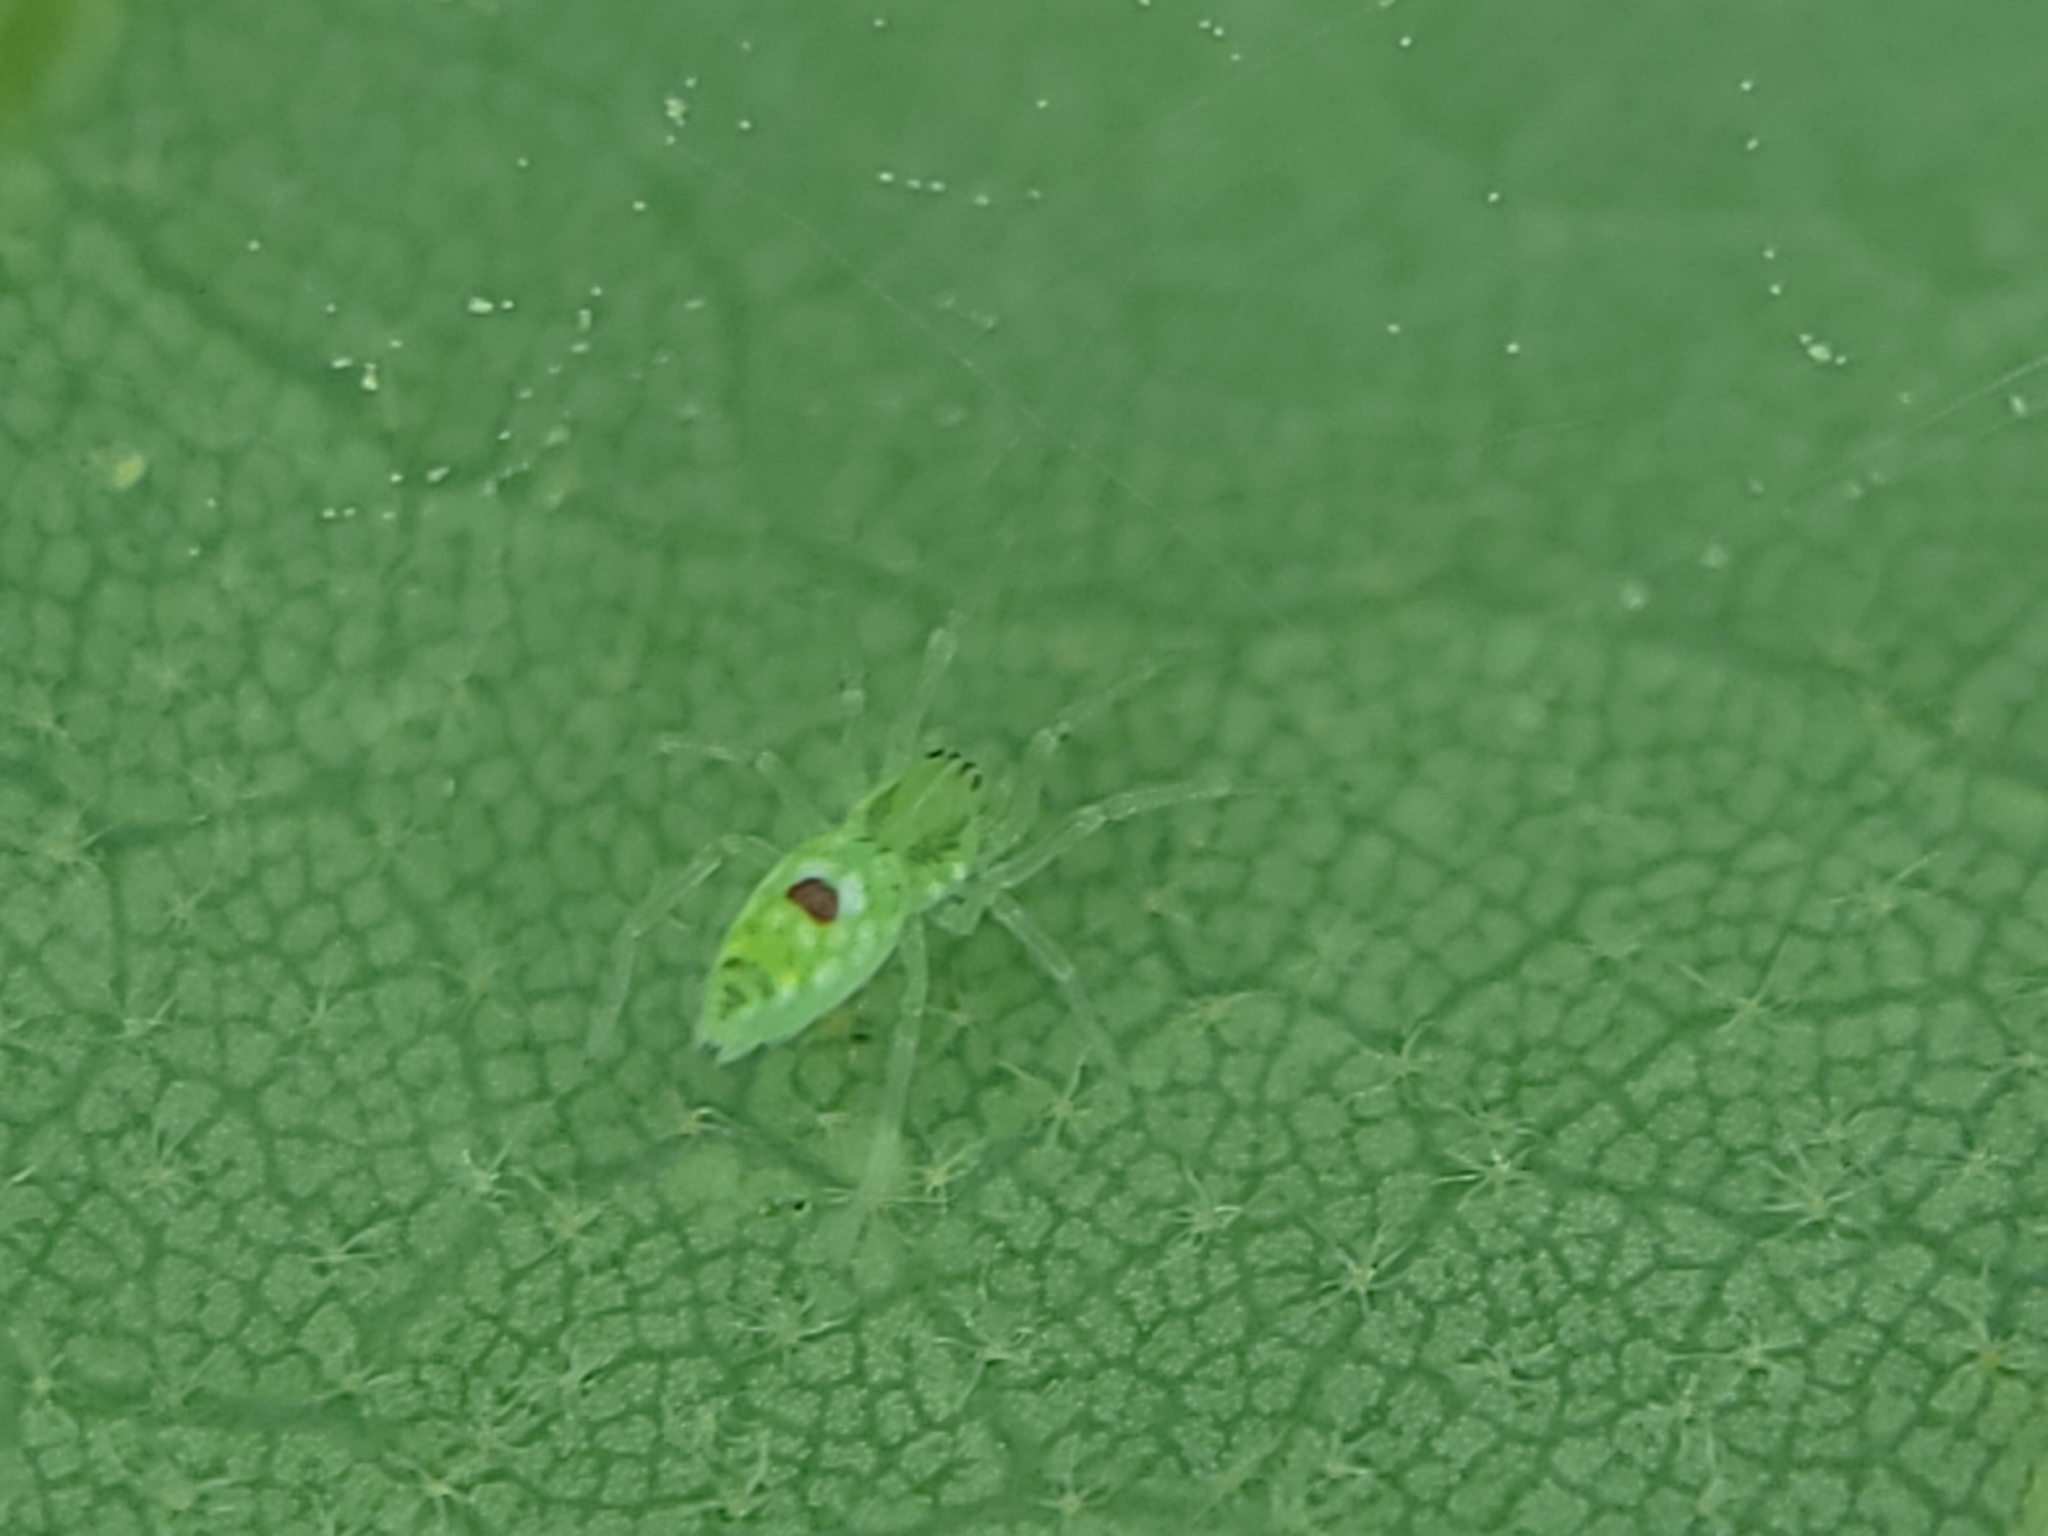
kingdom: Animalia
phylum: Arthropoda
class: Arachnida
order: Araneae
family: Dictynidae
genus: Nigma
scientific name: Nigma linsdalei
